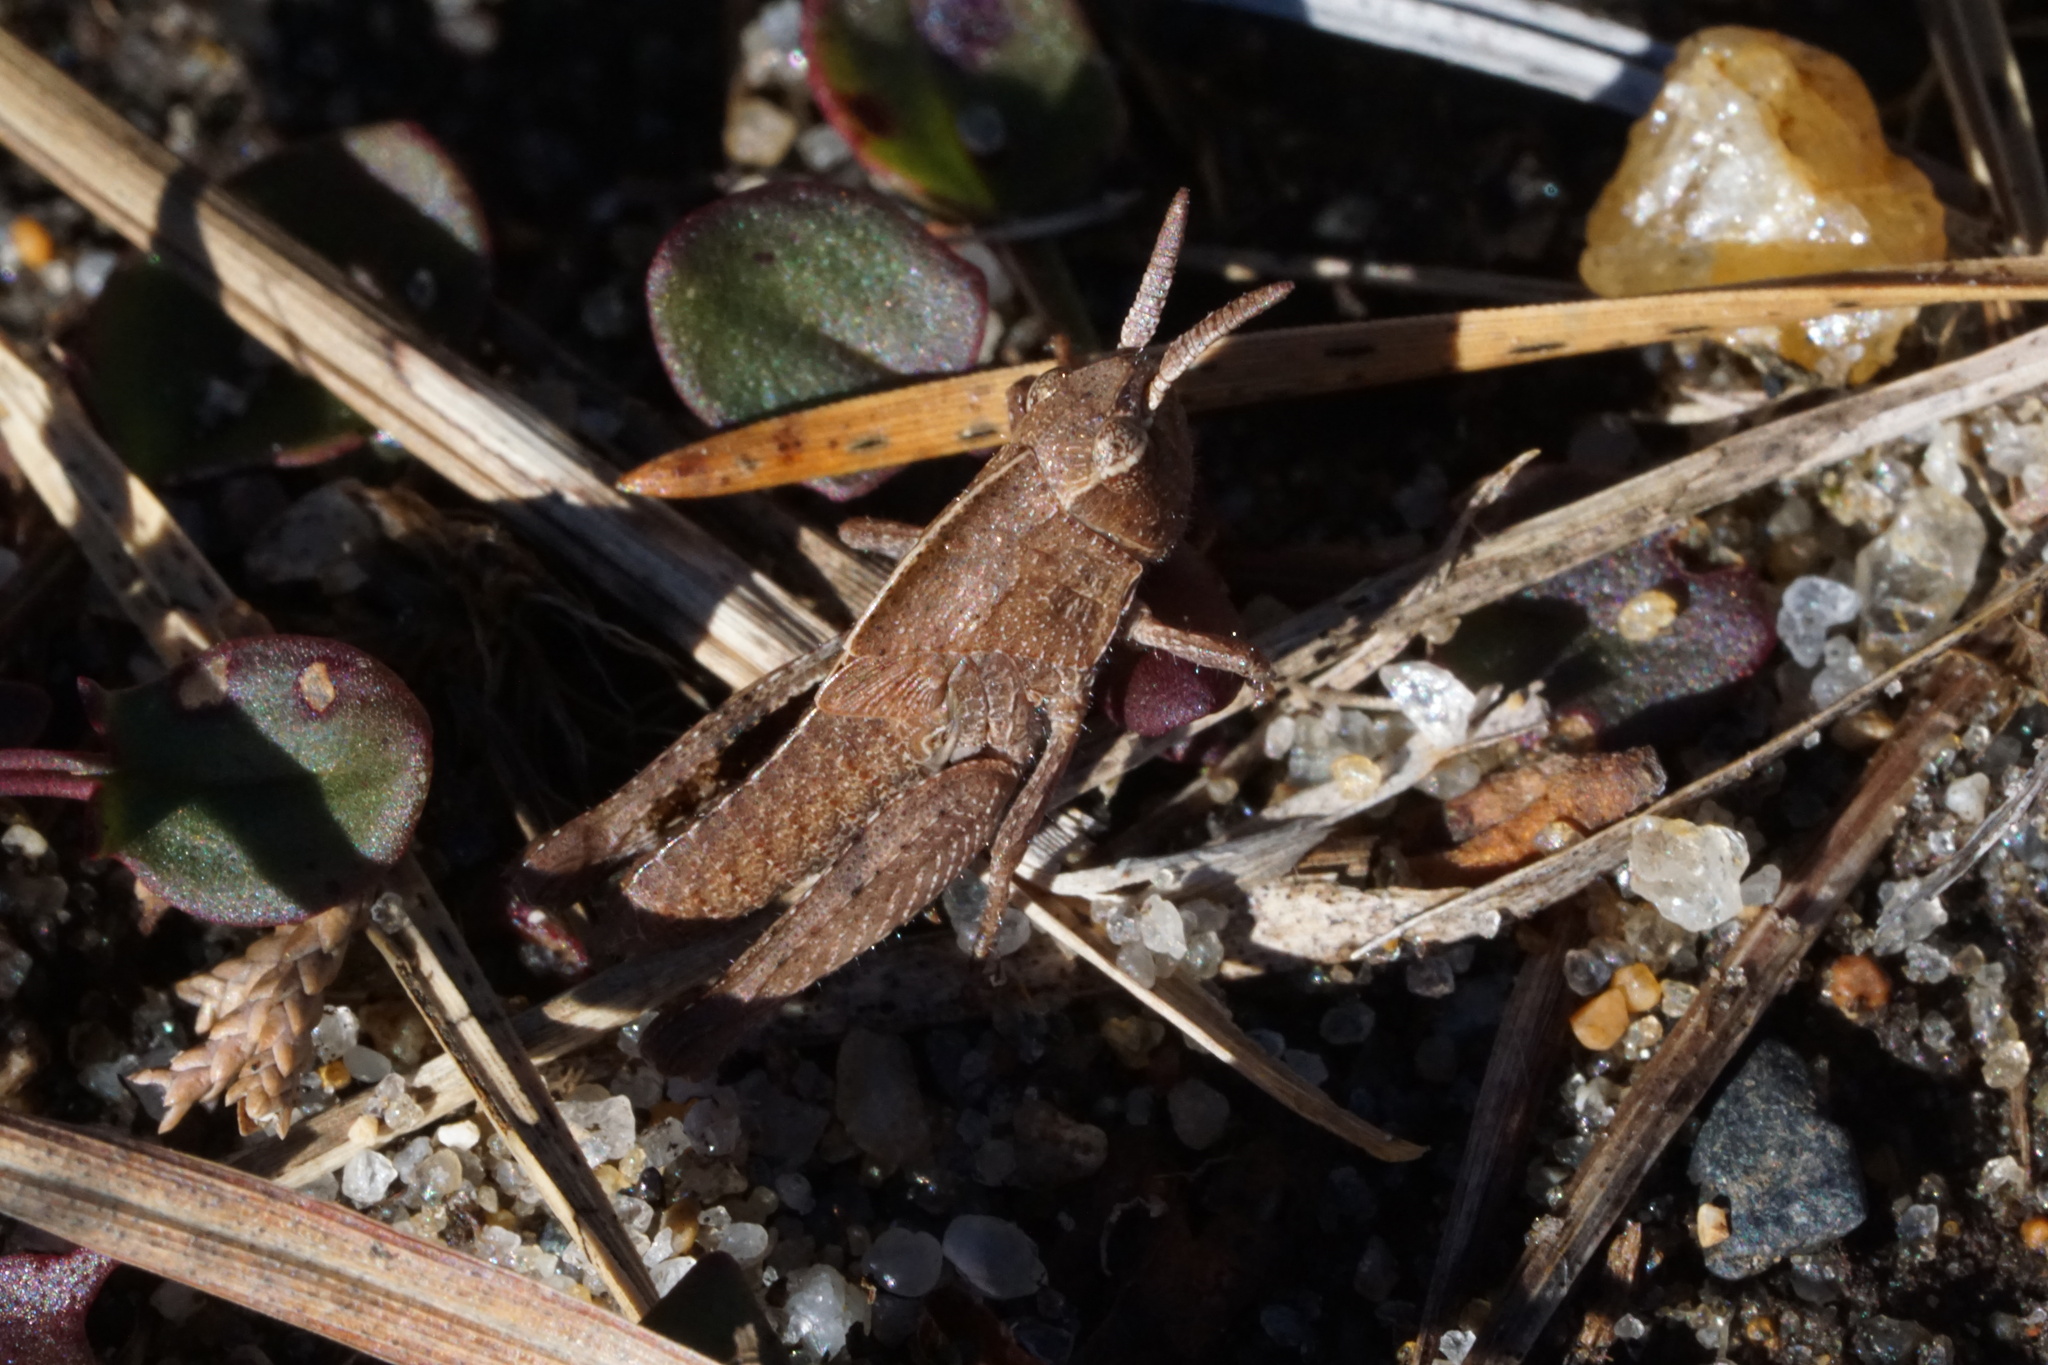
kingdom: Animalia
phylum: Arthropoda
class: Insecta
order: Orthoptera
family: Acrididae
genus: Chortophaga
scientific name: Chortophaga viridifasciata
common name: Green-striped grasshopper
